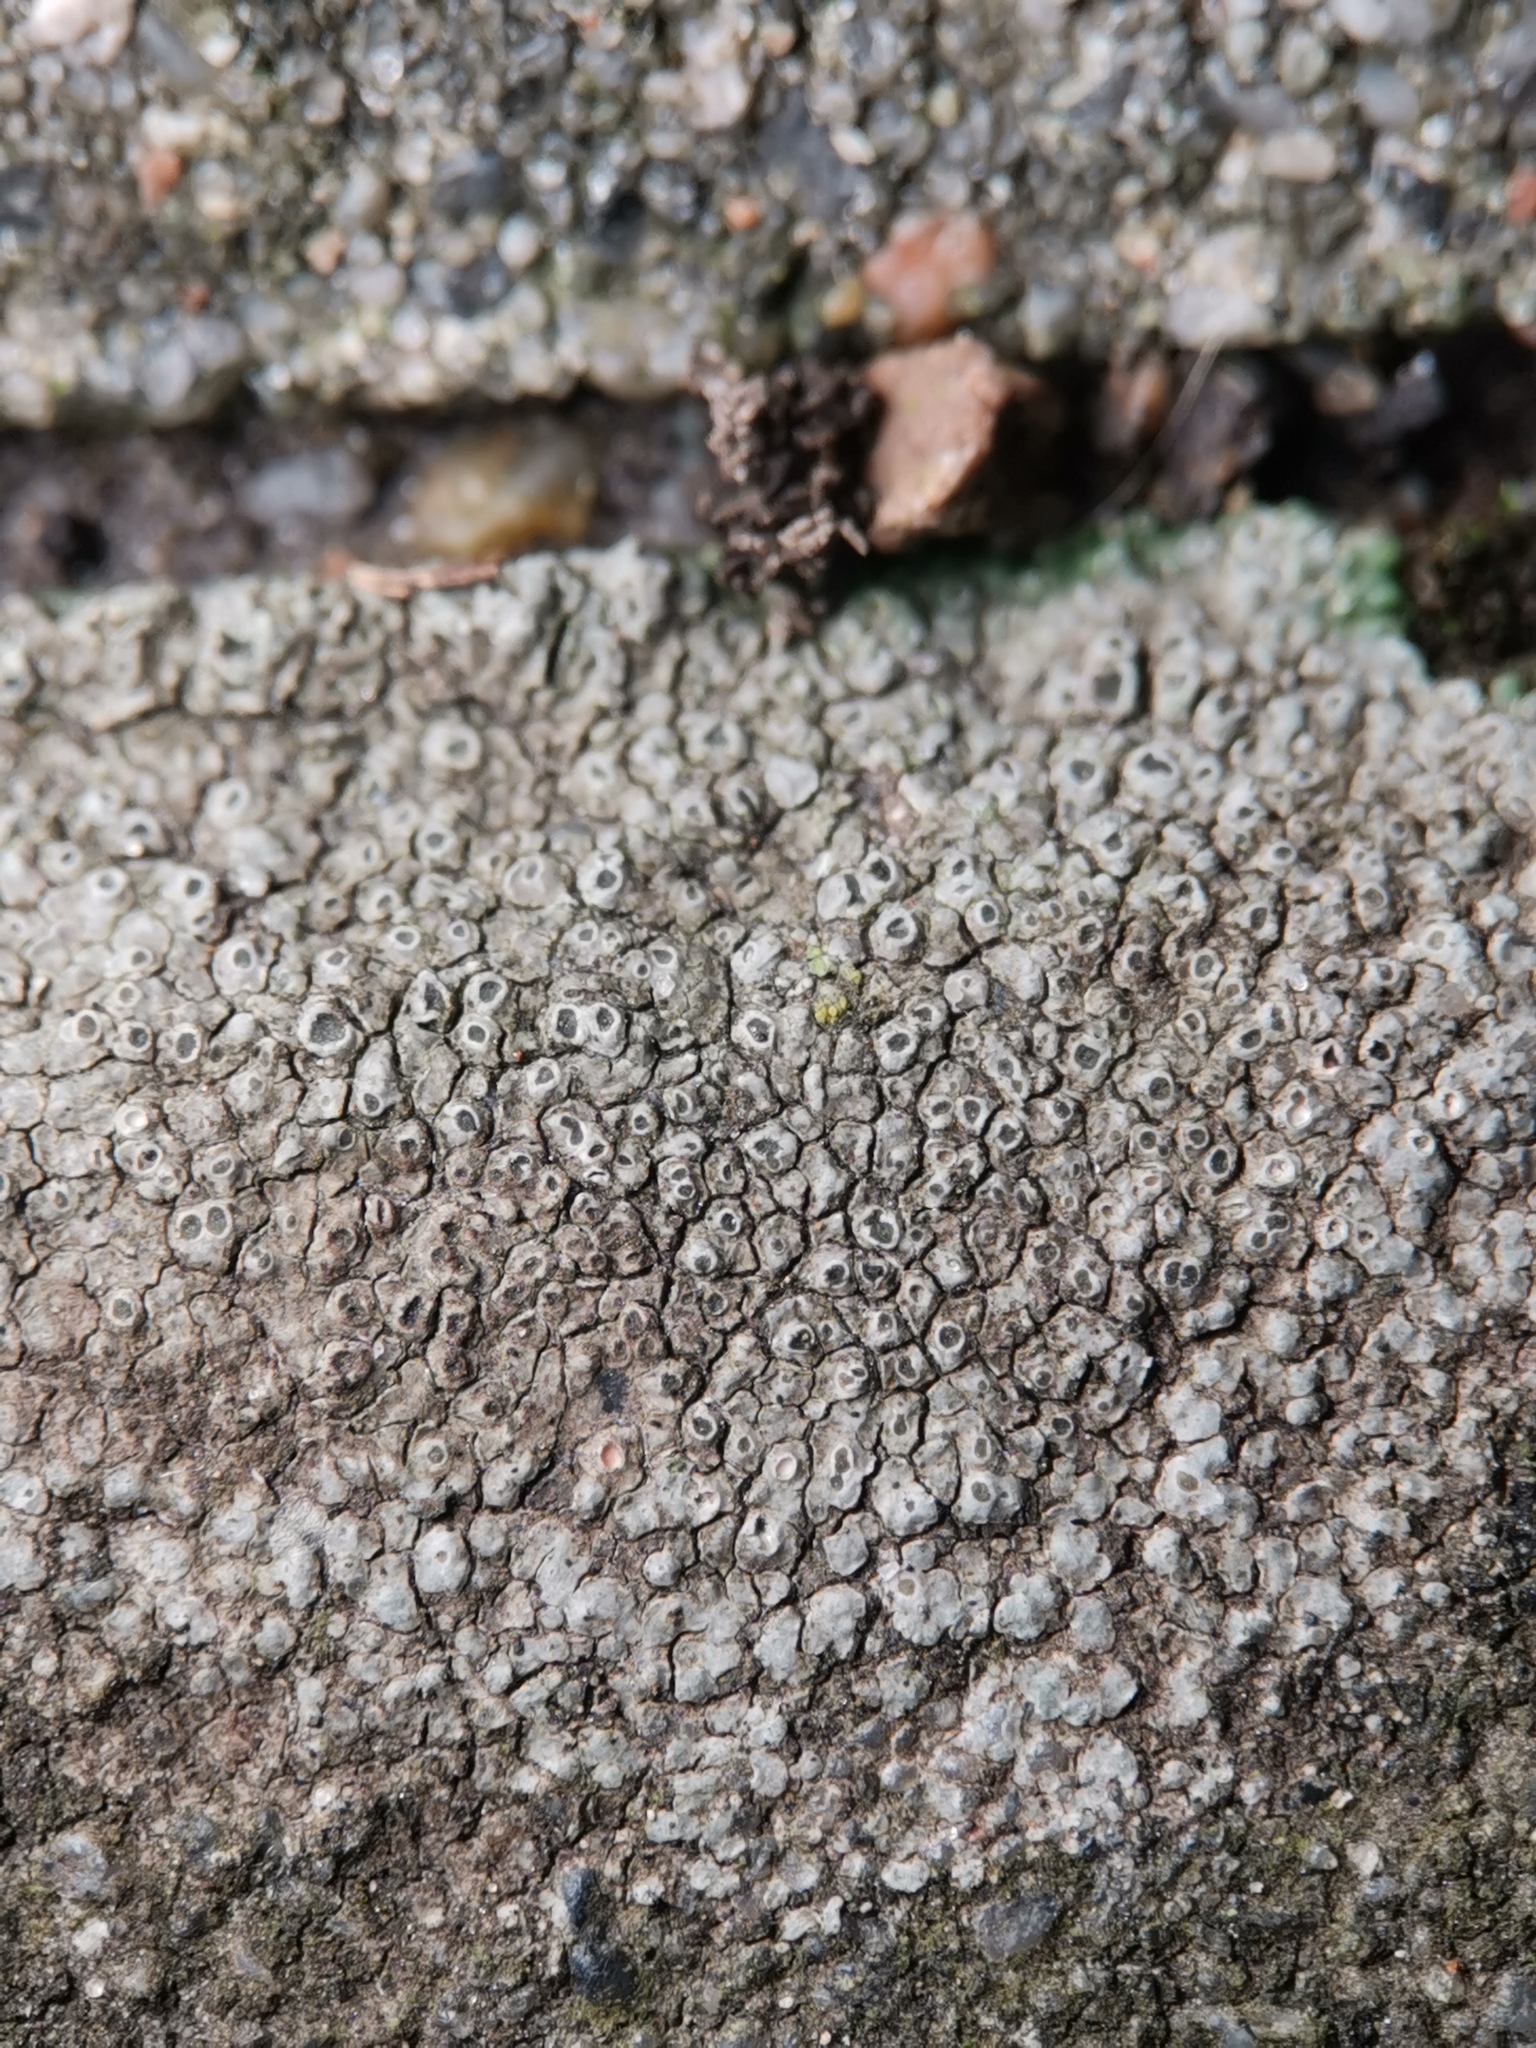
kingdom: Fungi
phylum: Ascomycota
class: Lecanoromycetes
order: Pertusariales
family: Megasporaceae
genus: Circinaria
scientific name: Circinaria contorta
